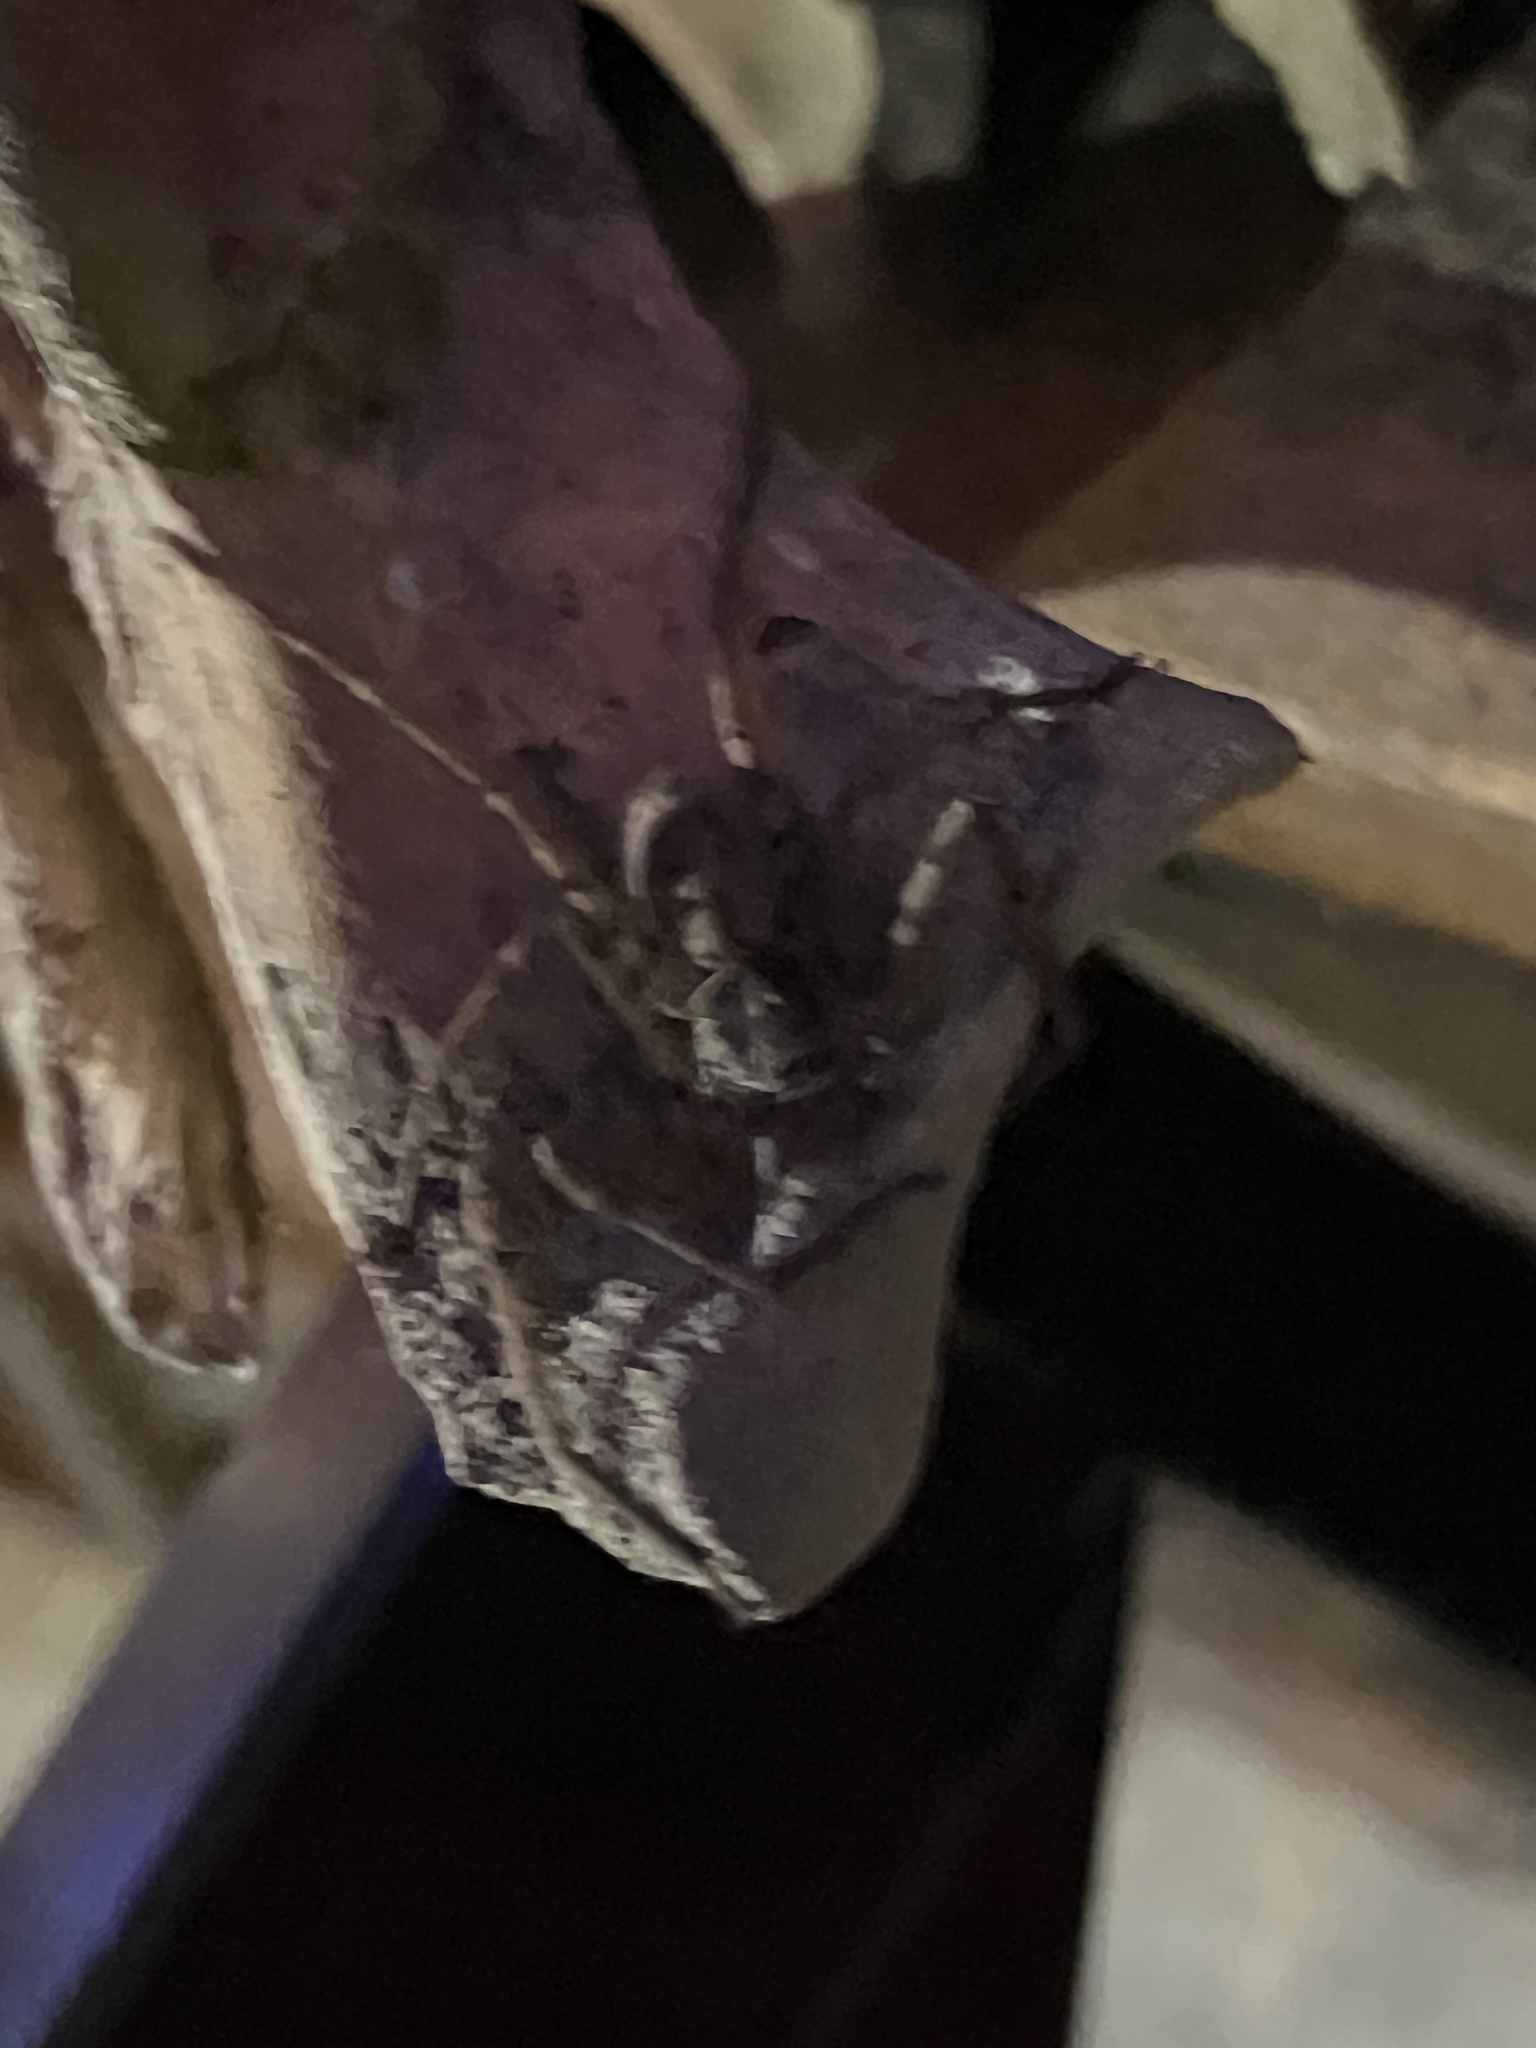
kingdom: Animalia
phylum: Arthropoda
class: Arachnida
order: Araneae
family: Sparassidae
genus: Heteropoda
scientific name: Heteropoda venatoria
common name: Huntsman spider
